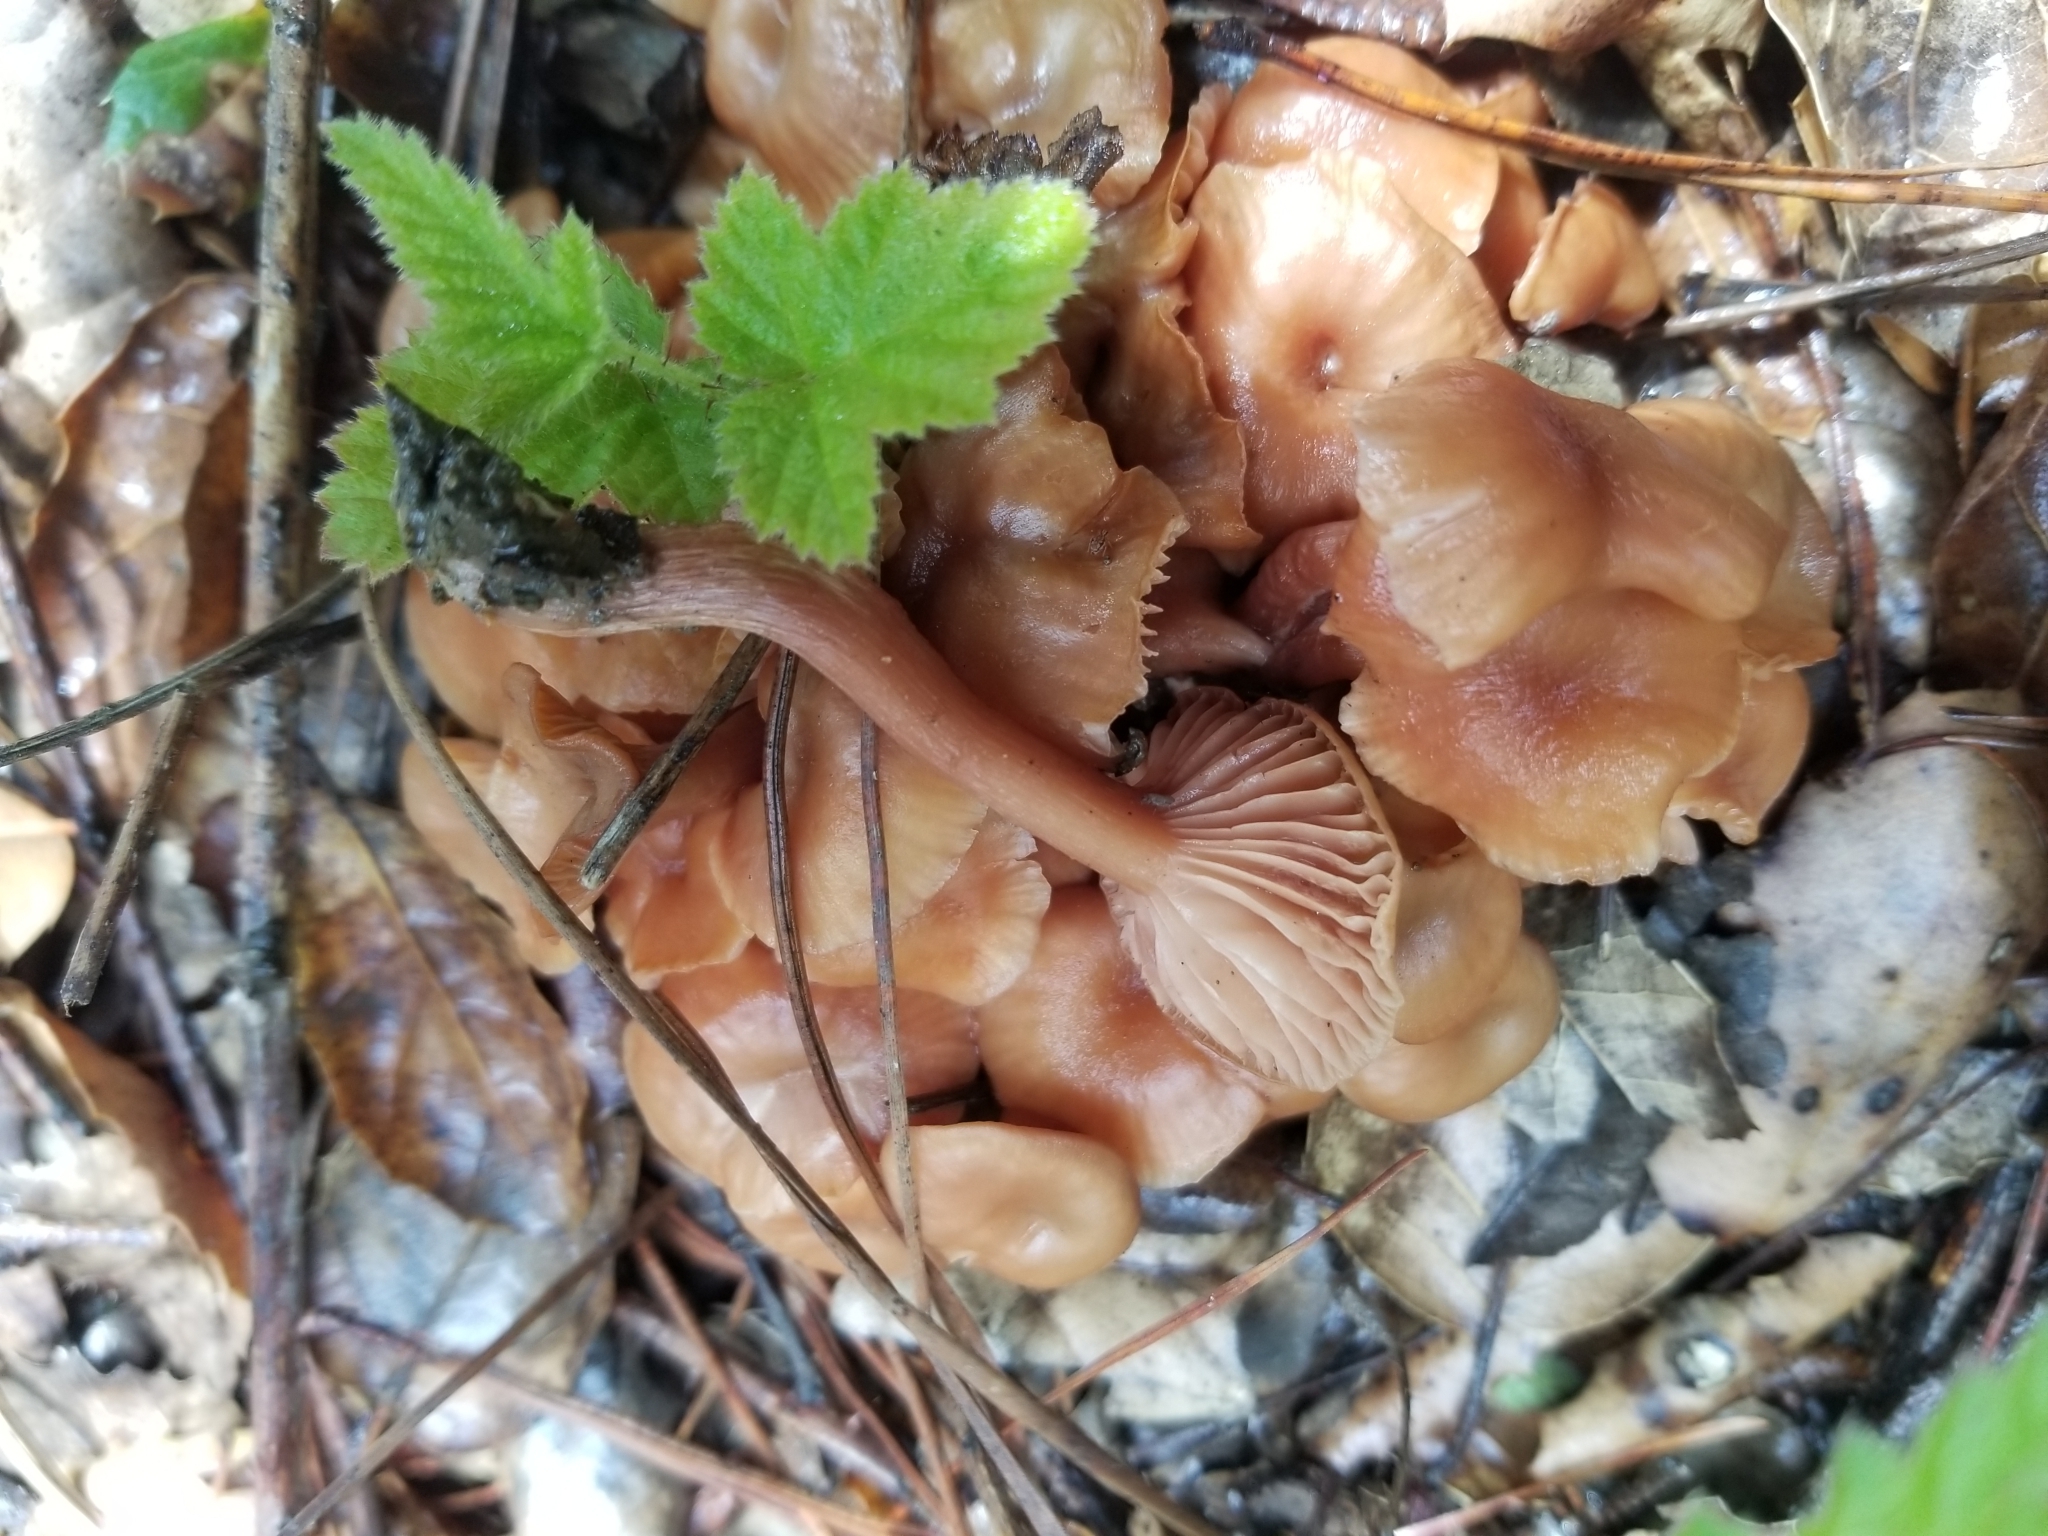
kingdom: Fungi
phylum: Basidiomycota
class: Agaricomycetes
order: Agaricales
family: Hydnangiaceae
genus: Laccaria
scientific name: Laccaria laccata
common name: Deceiver
